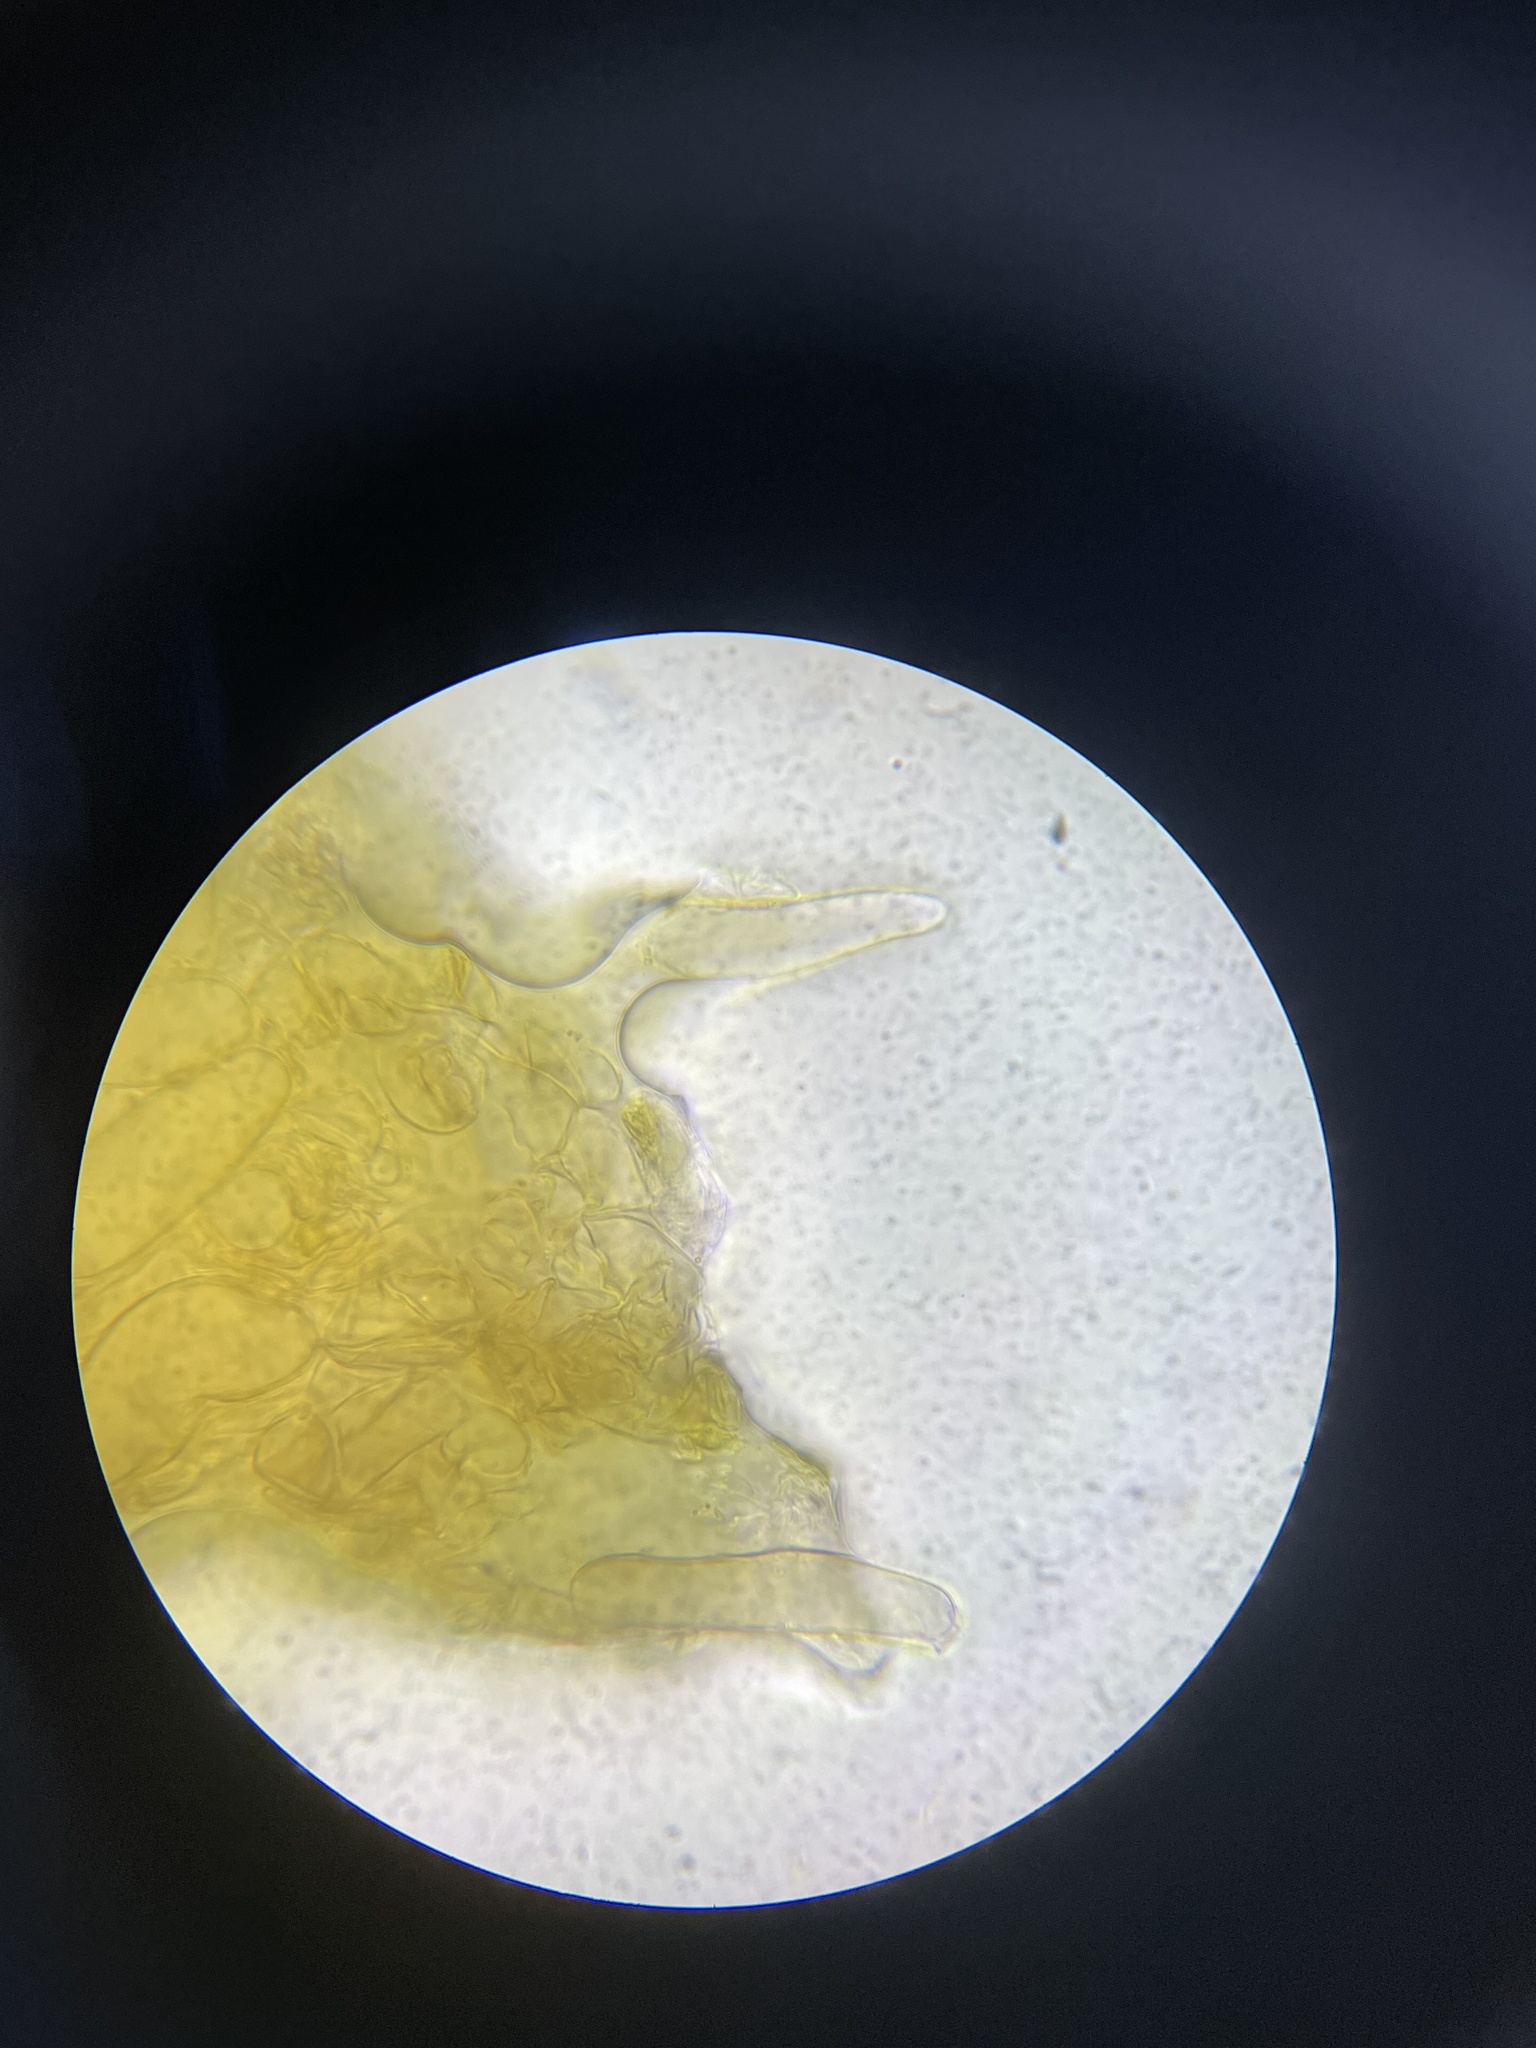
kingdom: Fungi
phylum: Basidiomycota
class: Agaricomycetes
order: Agaricales
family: Cortinariaceae
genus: Cortinarius
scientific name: Cortinarius aureifolius
